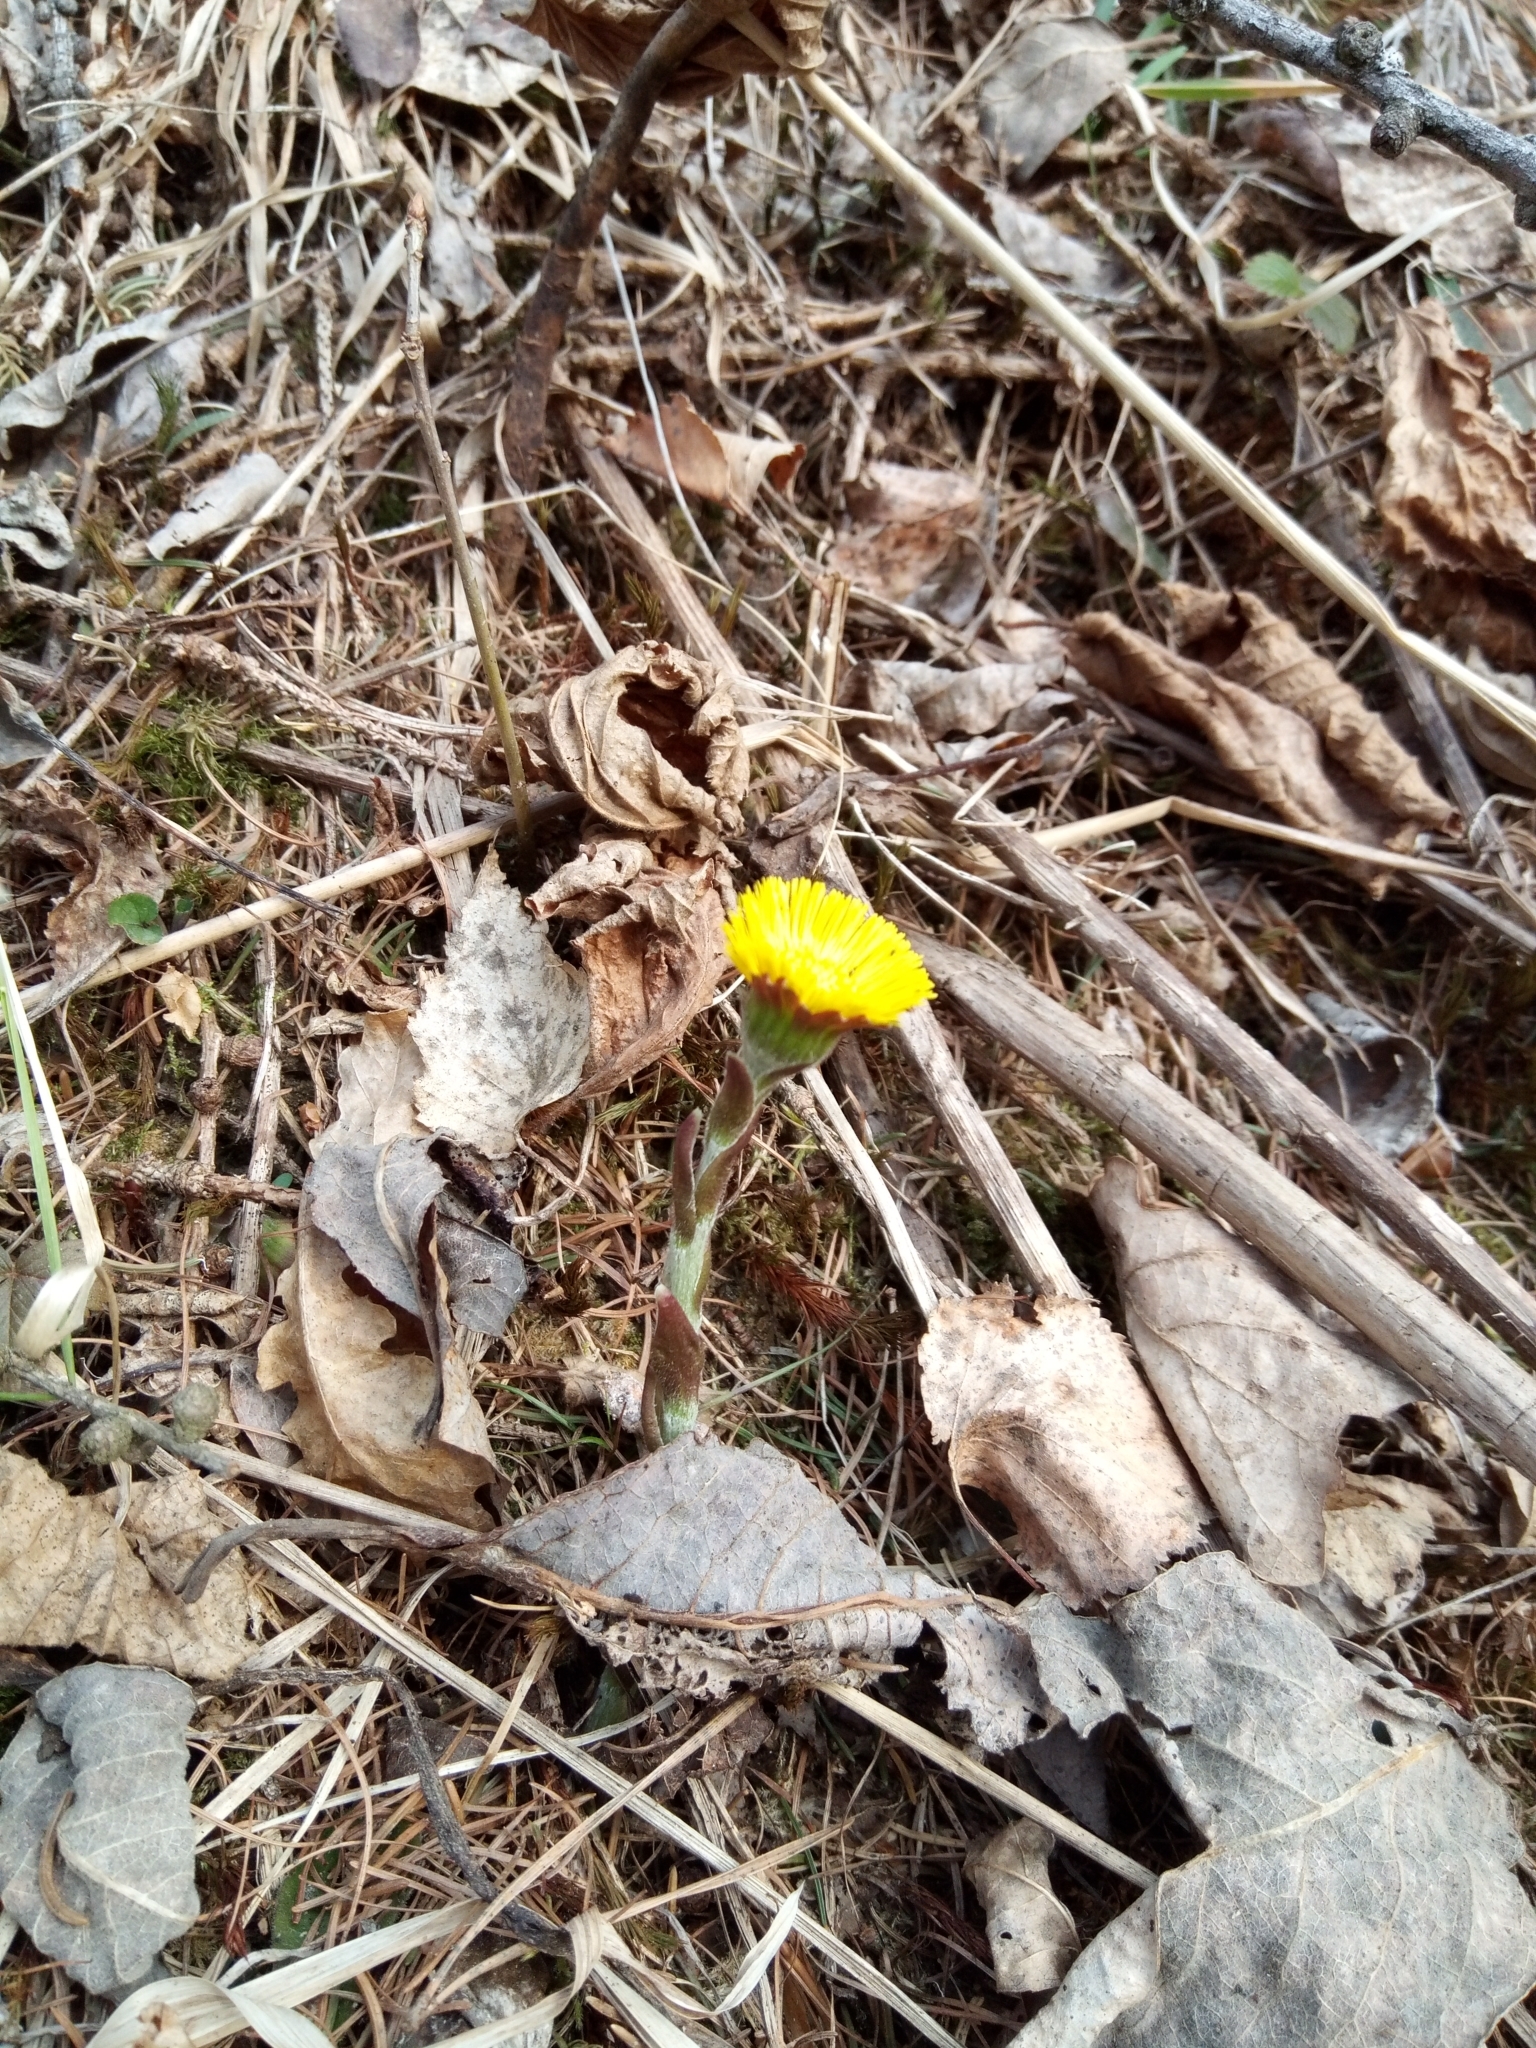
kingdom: Plantae
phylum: Tracheophyta
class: Magnoliopsida
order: Asterales
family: Asteraceae
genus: Tussilago
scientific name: Tussilago farfara
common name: Coltsfoot
